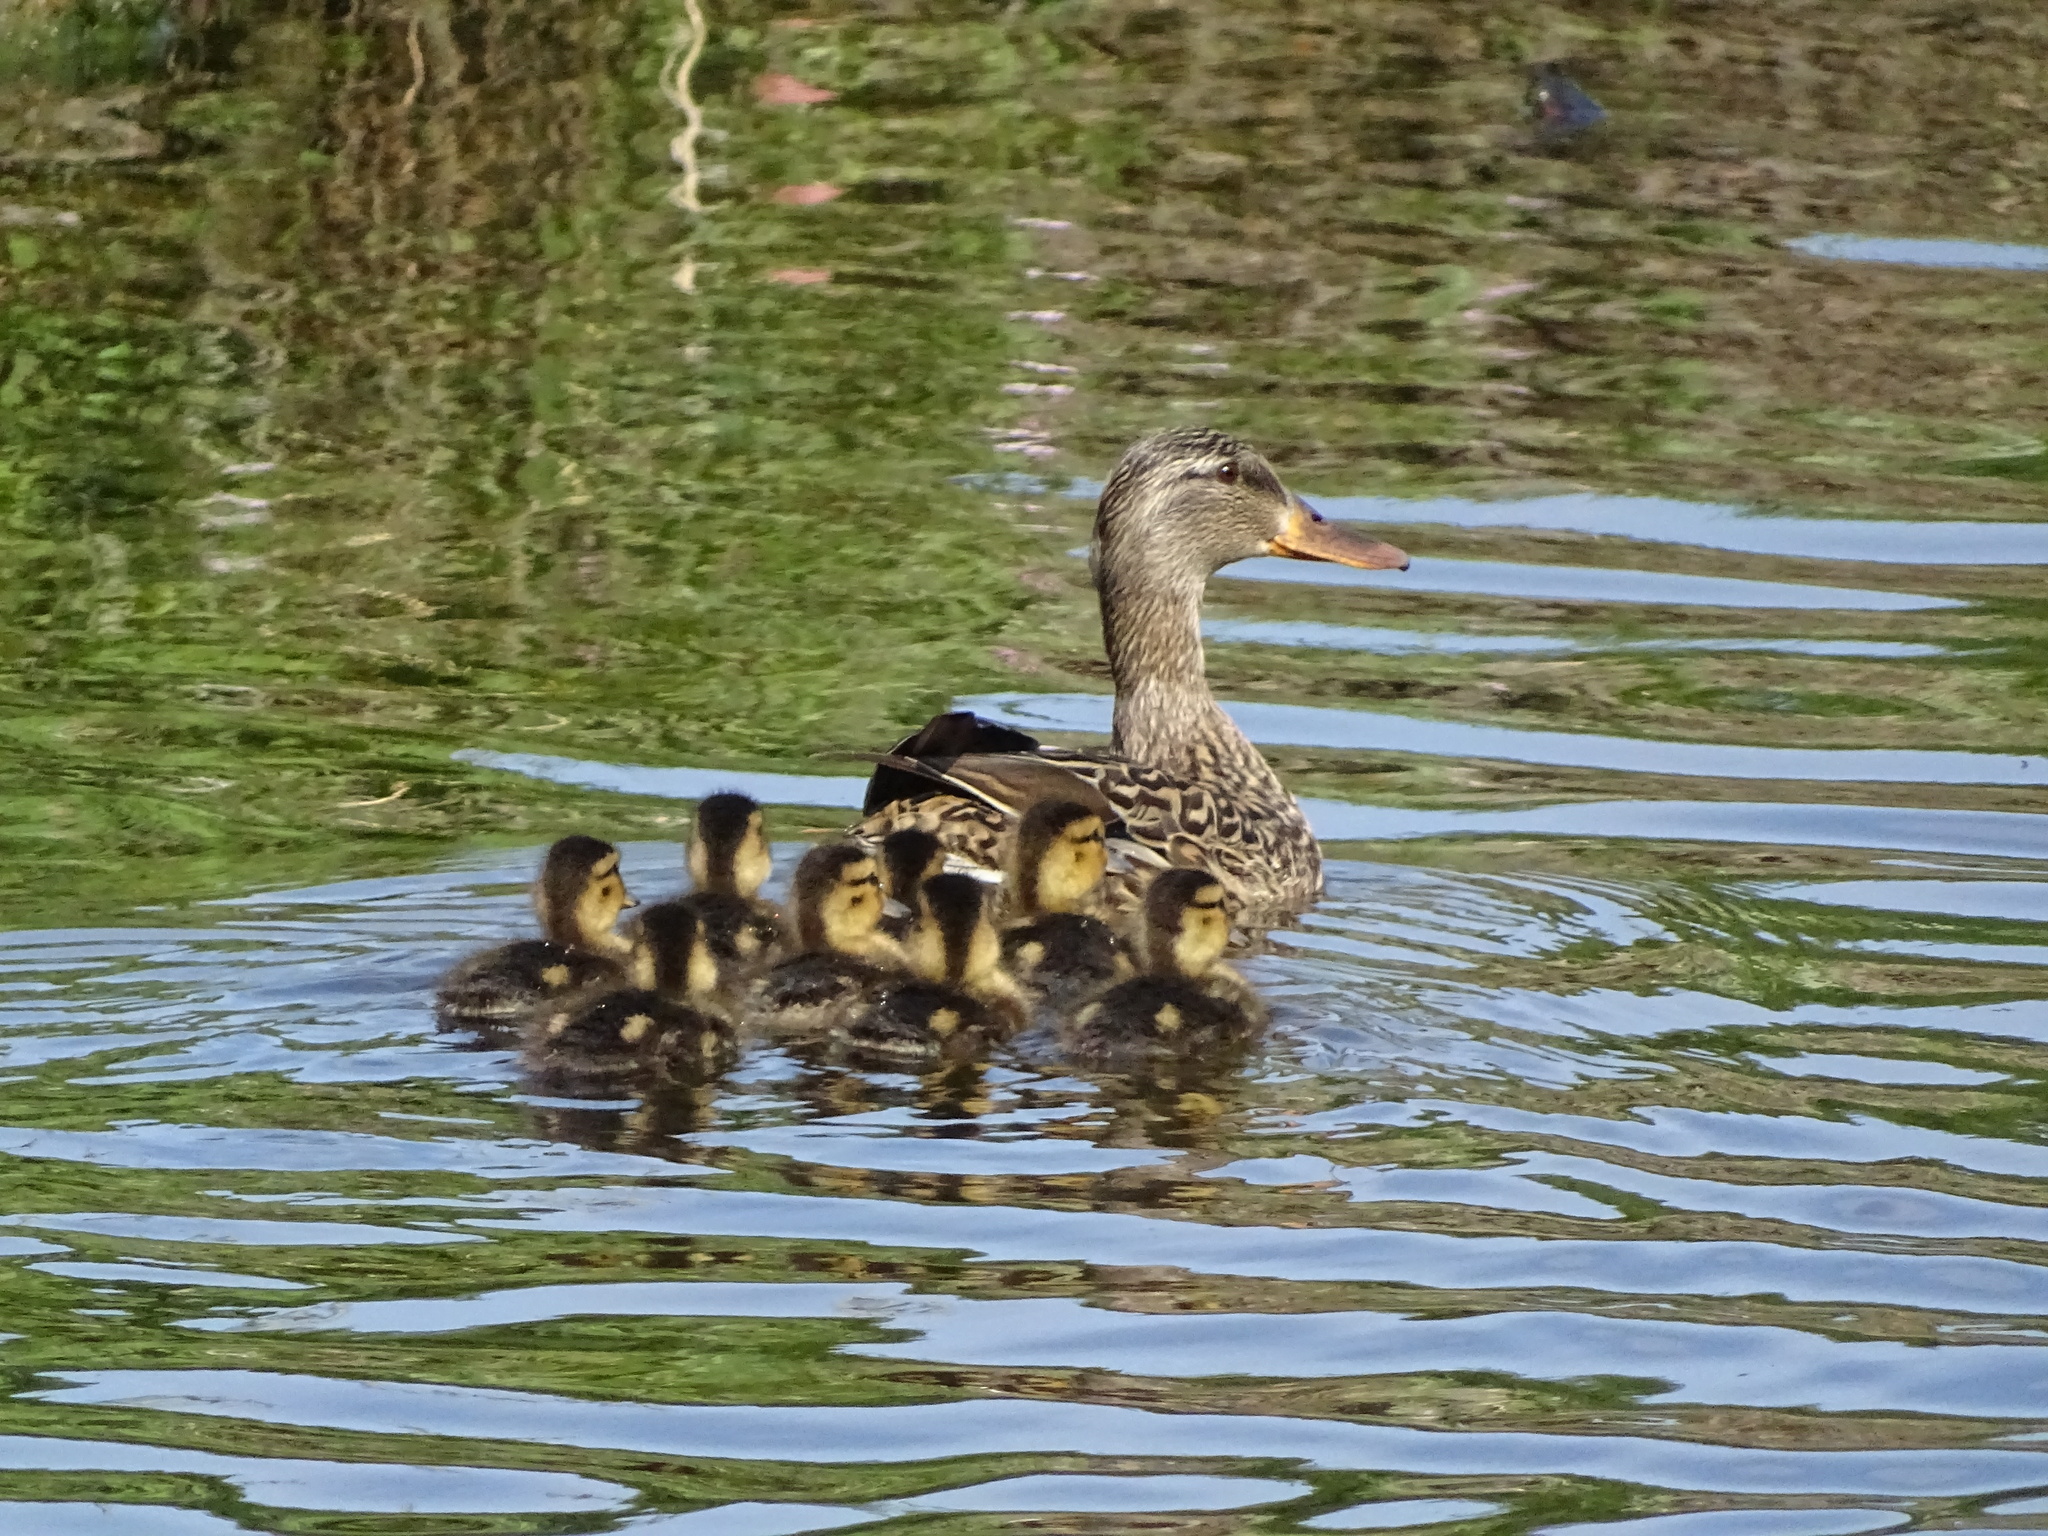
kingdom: Animalia
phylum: Chordata
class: Aves
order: Anseriformes
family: Anatidae
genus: Anas
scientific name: Anas platyrhynchos
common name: Mallard
